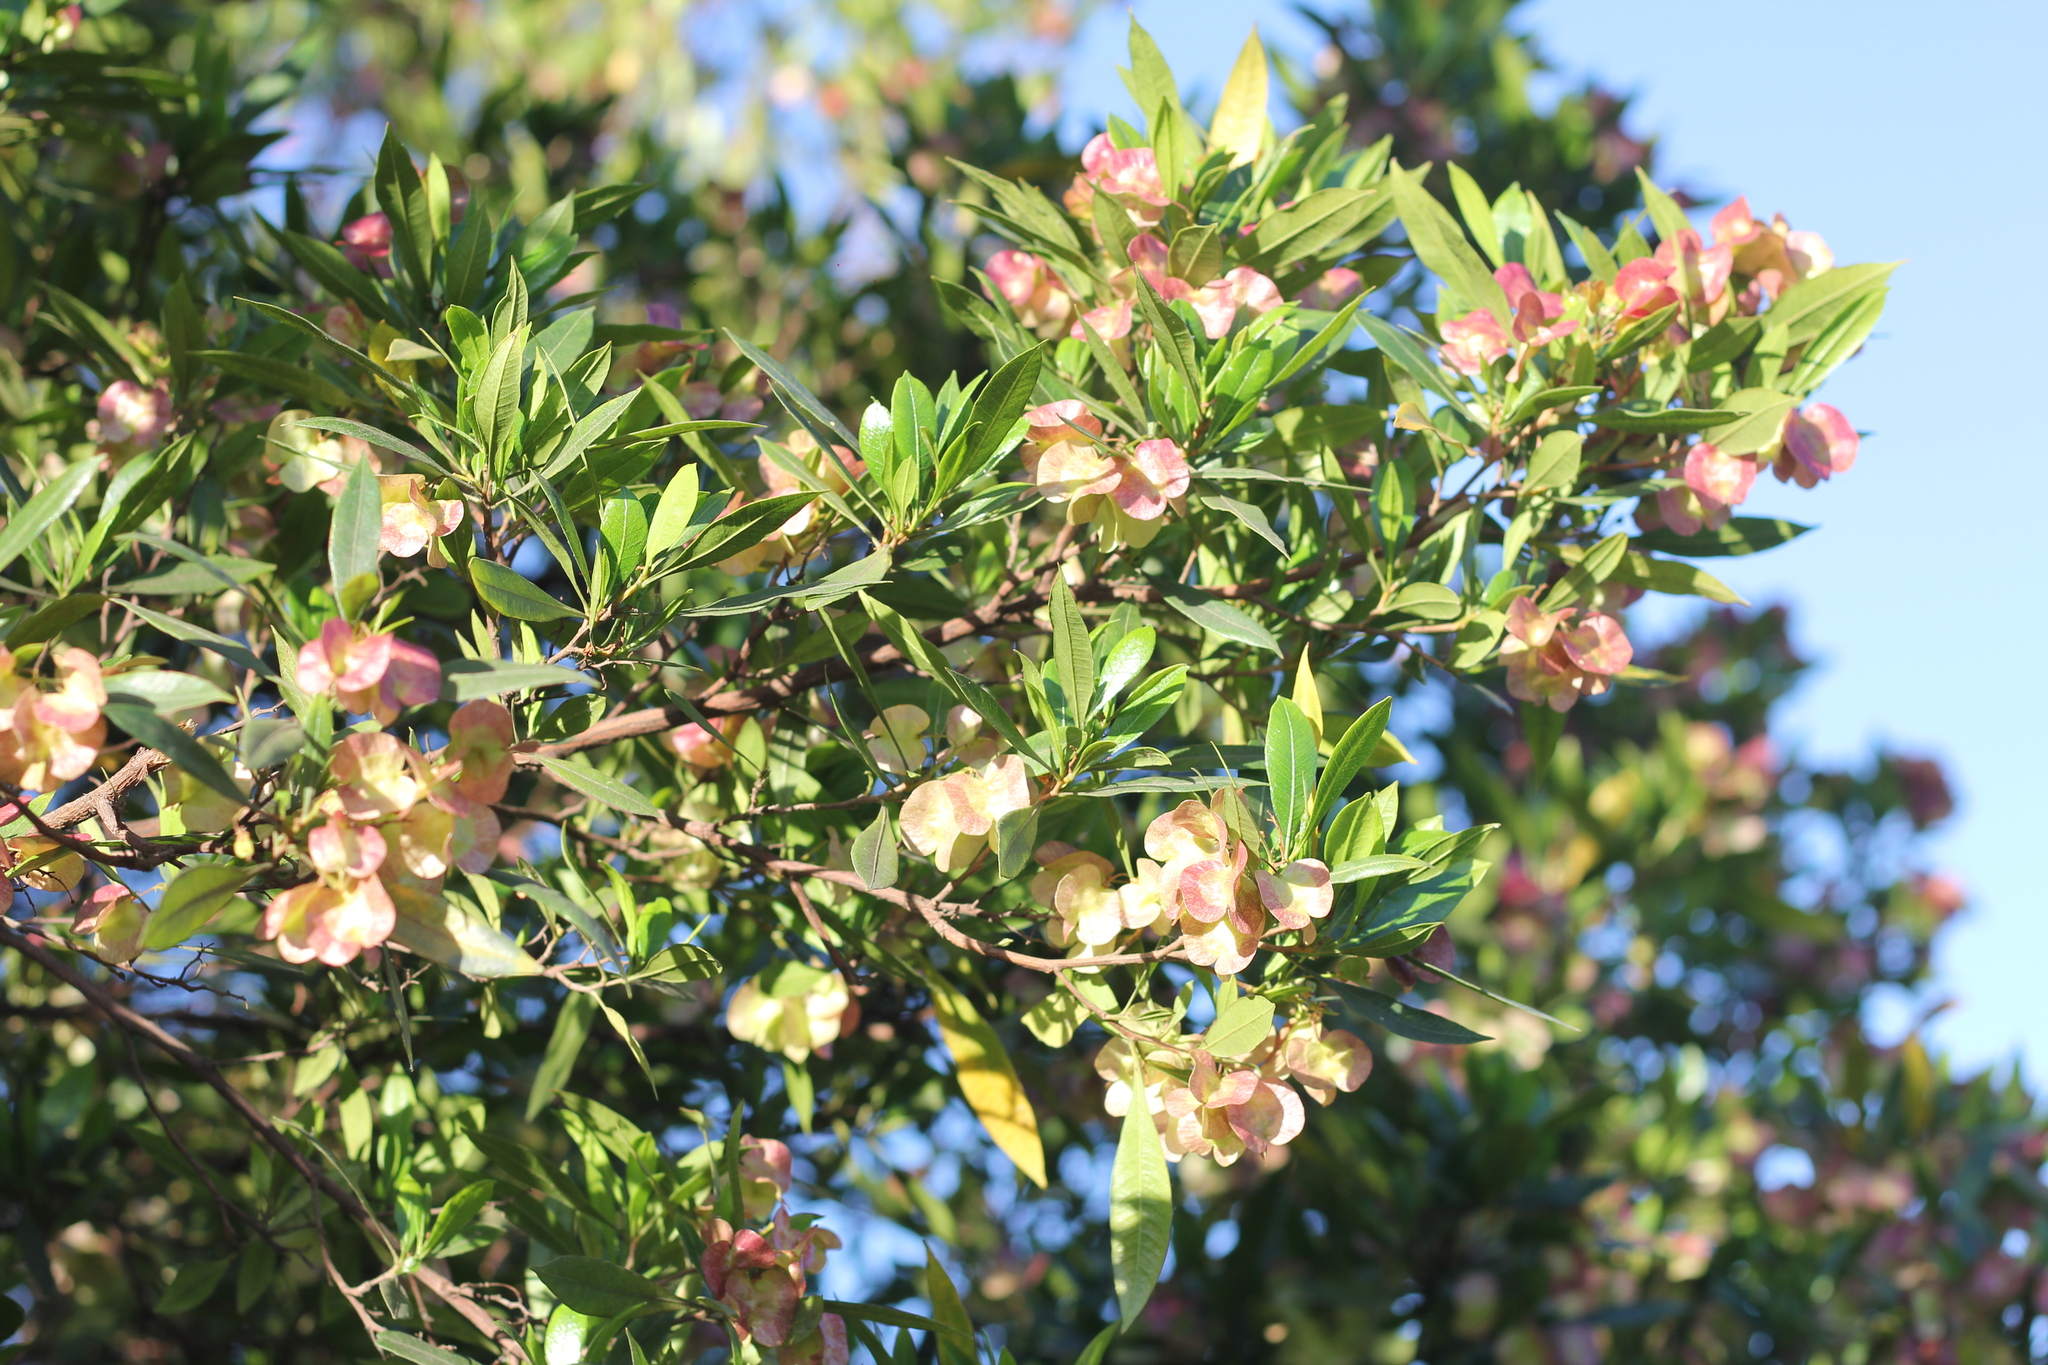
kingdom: Plantae
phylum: Tracheophyta
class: Magnoliopsida
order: Sapindales
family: Sapindaceae
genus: Dodonaea
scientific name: Dodonaea viscosa
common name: Hopbush
